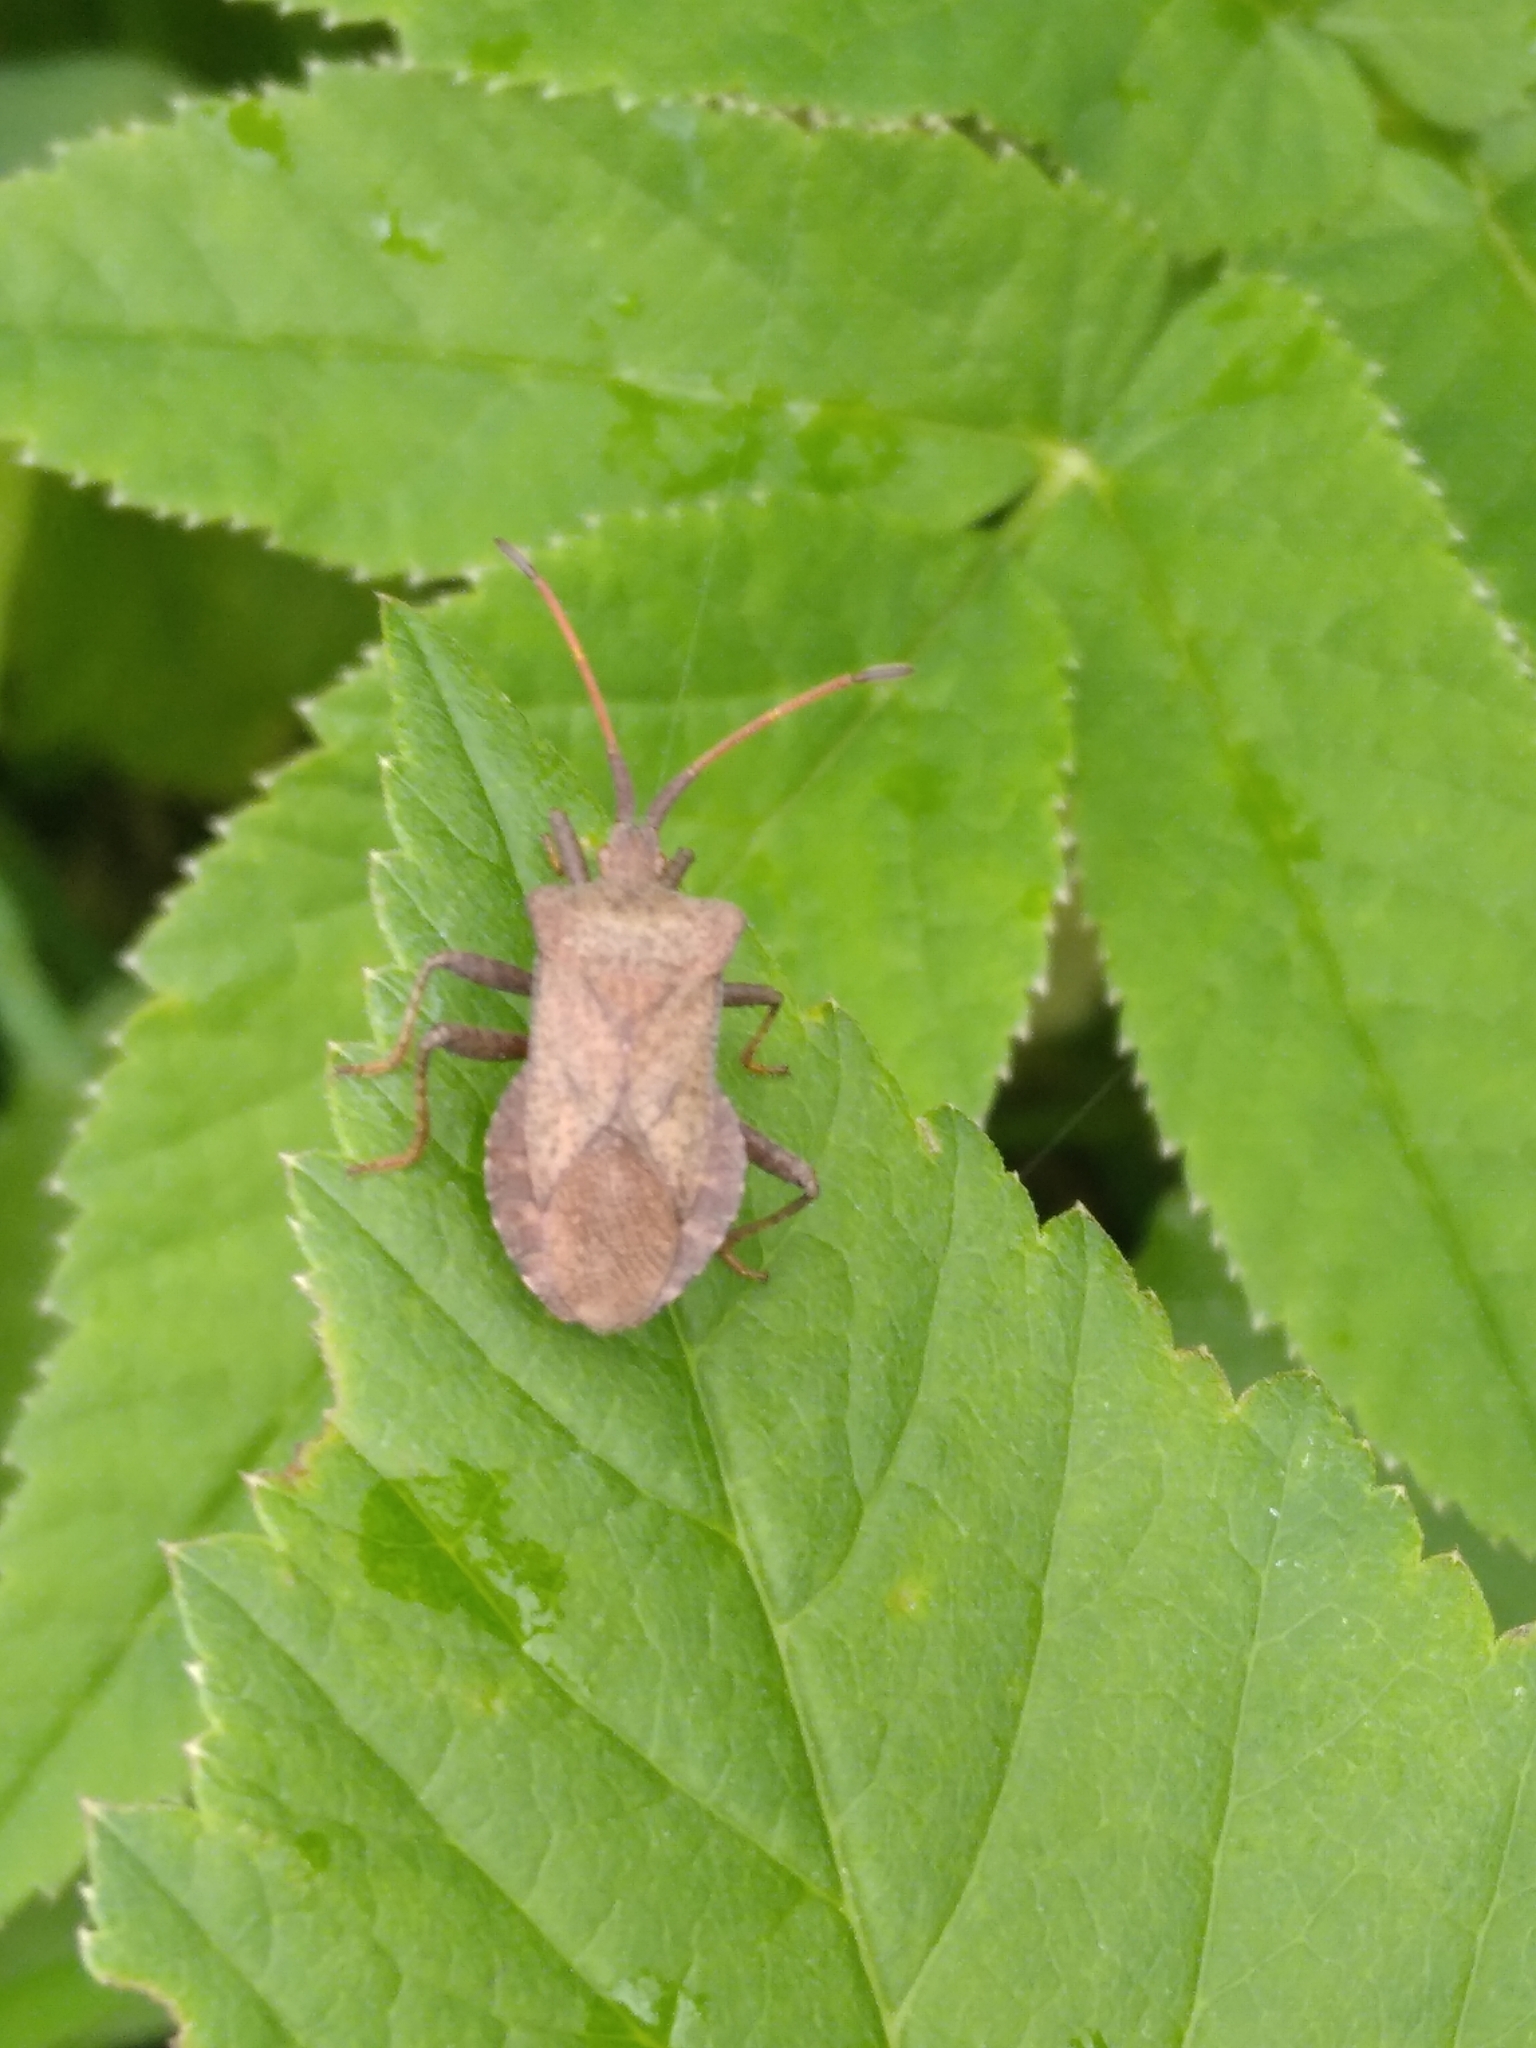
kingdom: Animalia
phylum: Arthropoda
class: Insecta
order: Hemiptera
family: Coreidae
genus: Coreus
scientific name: Coreus marginatus
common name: Dock bug
